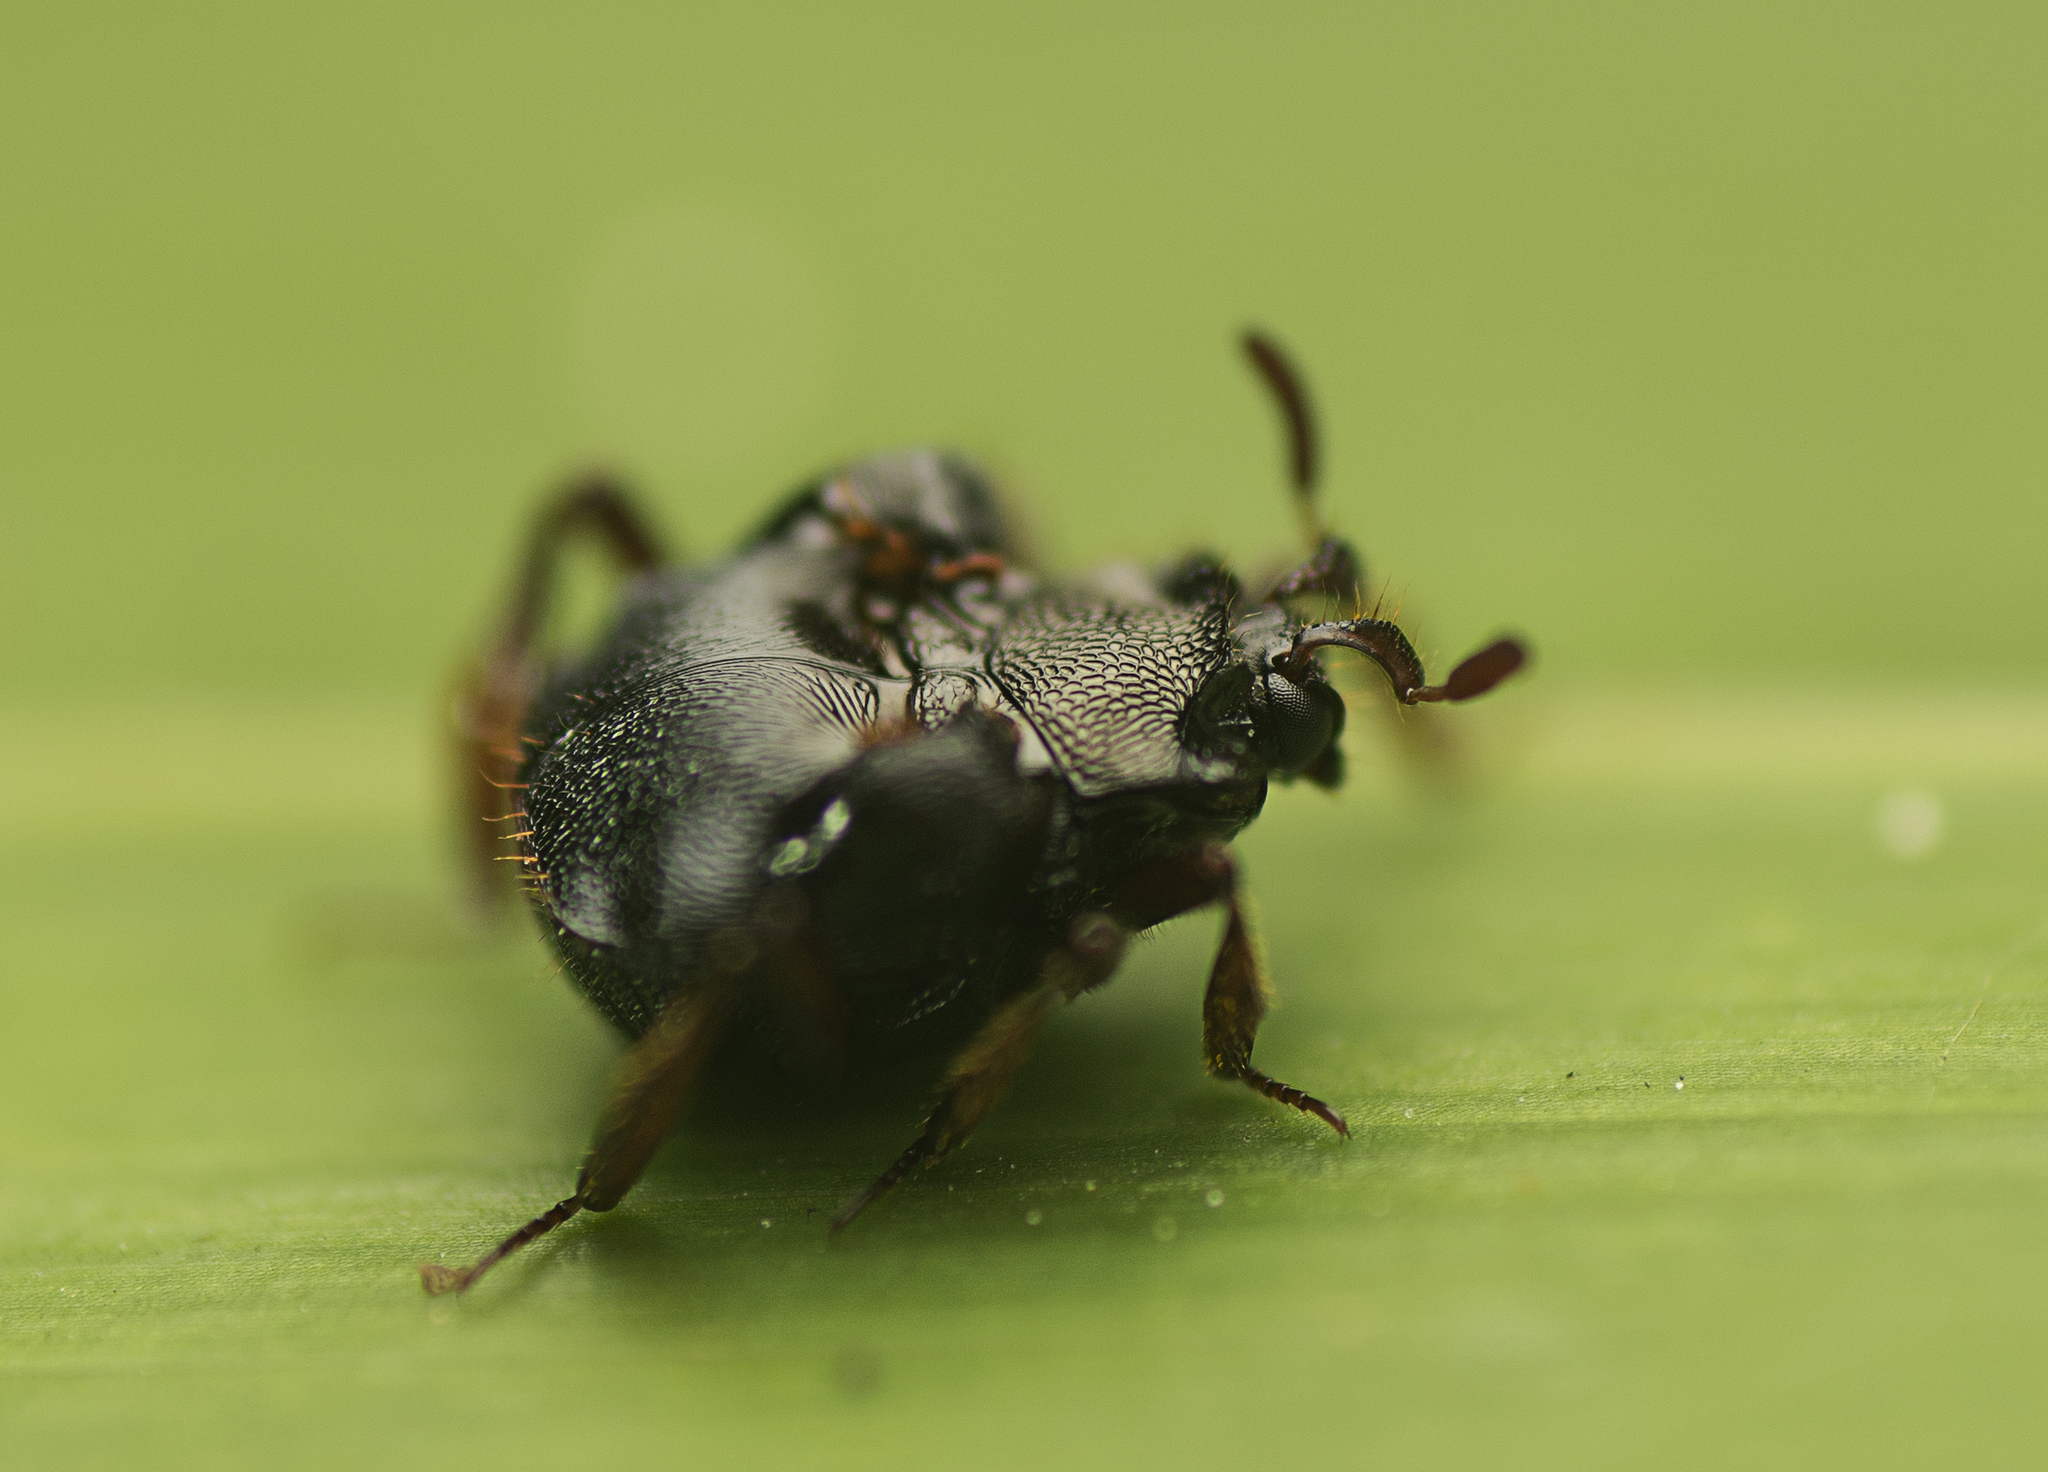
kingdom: Animalia
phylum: Arthropoda
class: Insecta
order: Coleoptera
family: Histeridae
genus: Chlamydopsis
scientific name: Chlamydopsis striatipennis
